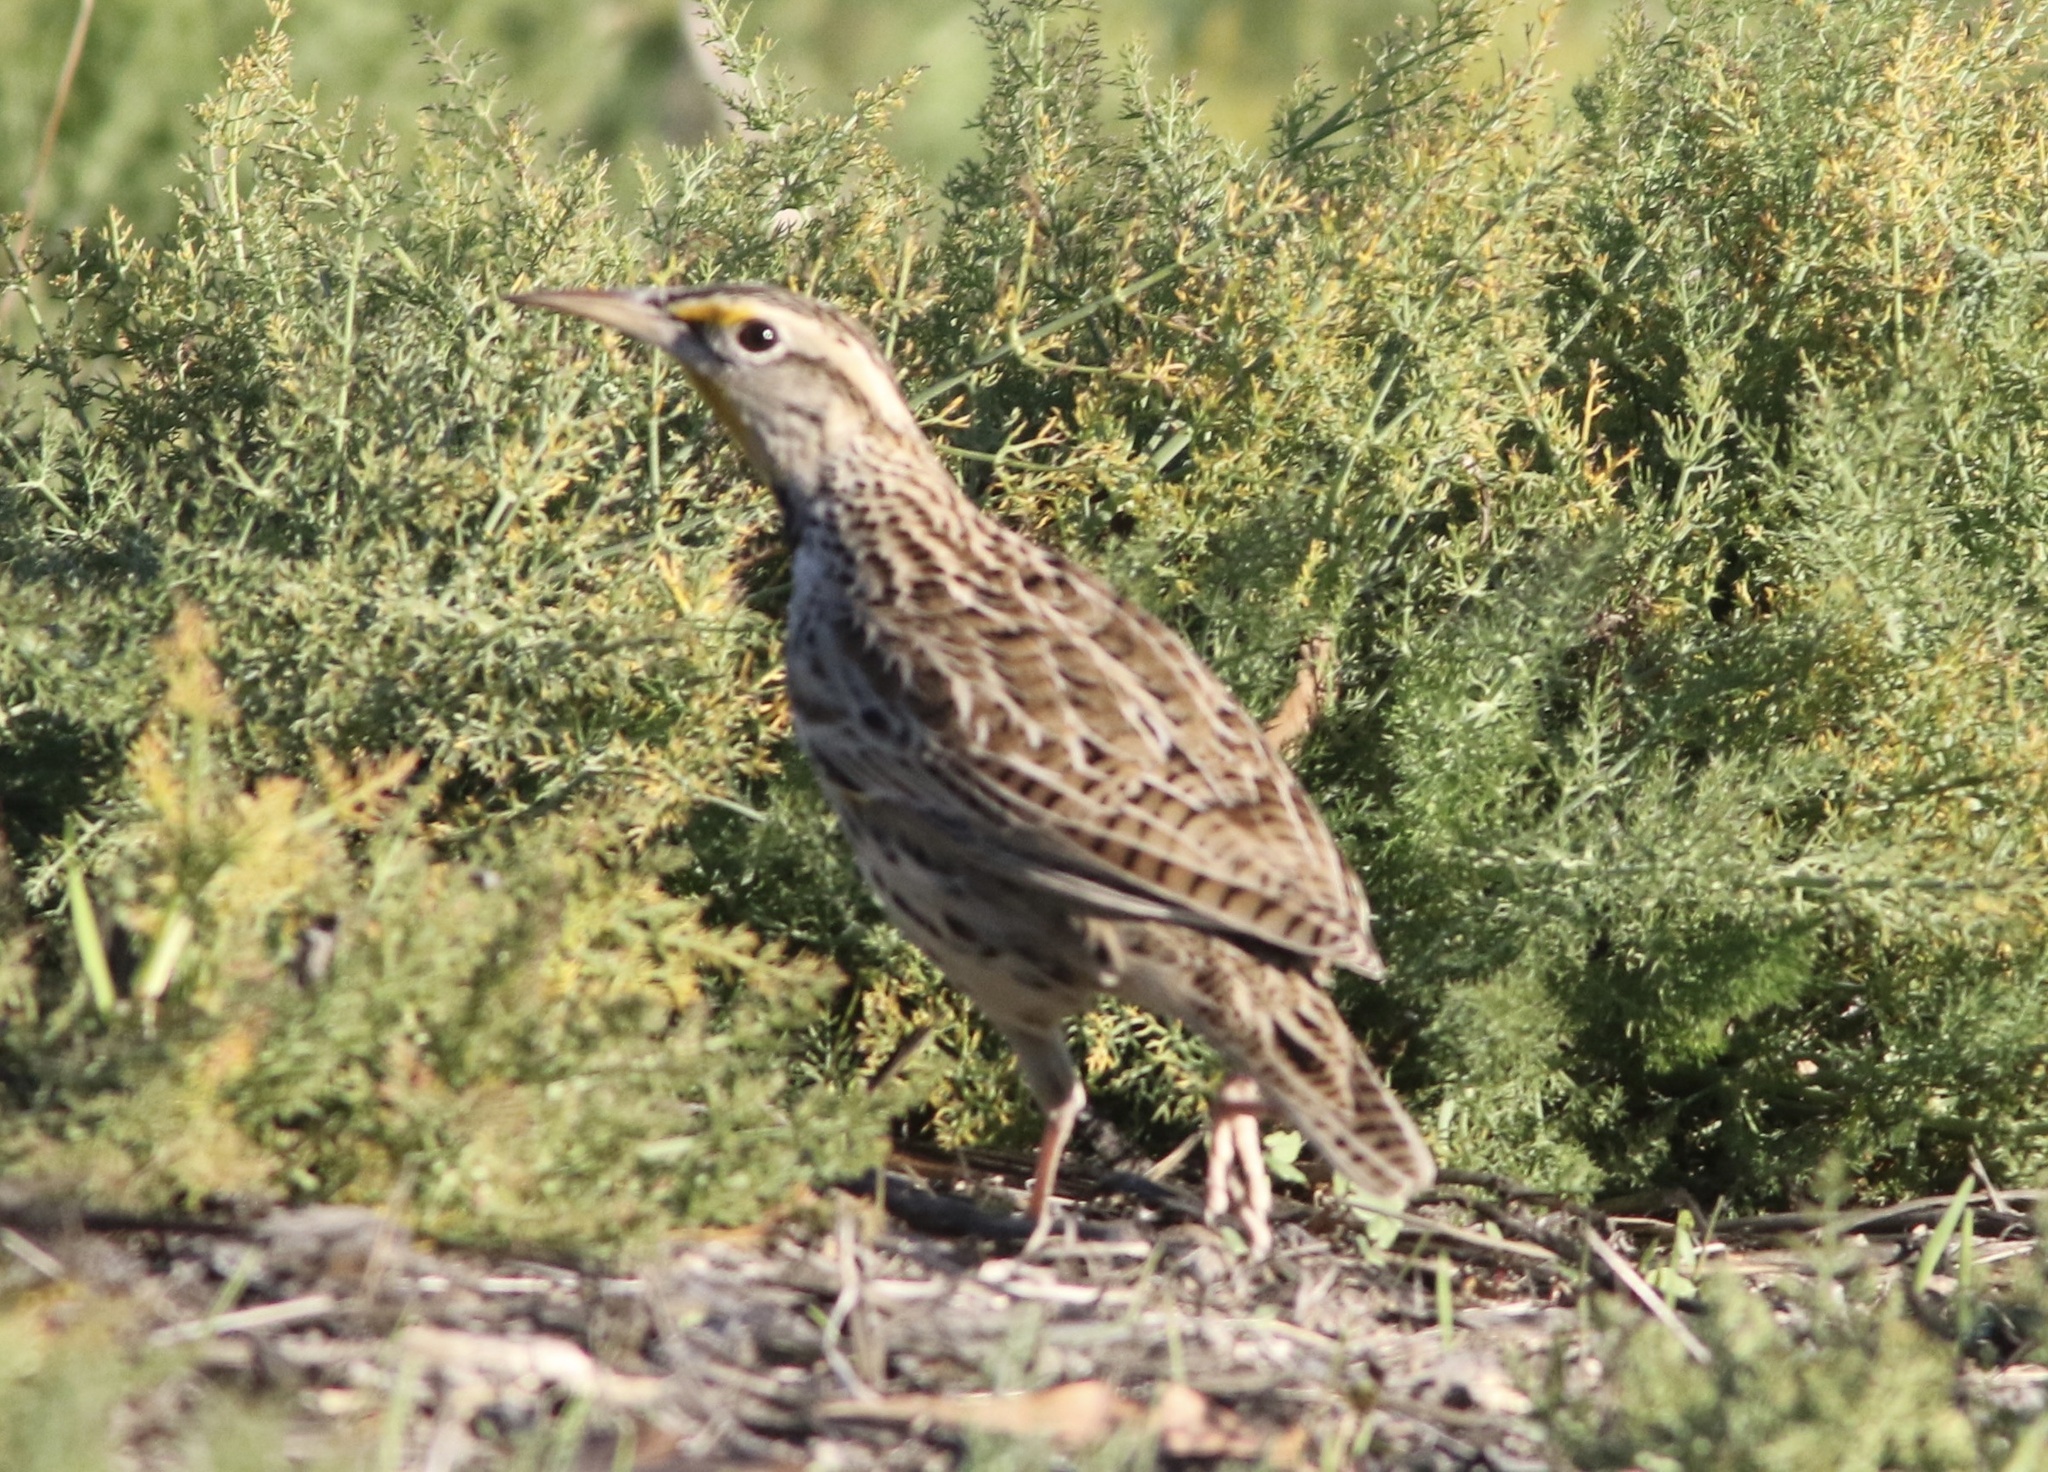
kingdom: Animalia
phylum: Chordata
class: Aves
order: Passeriformes
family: Icteridae
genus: Sturnella
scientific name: Sturnella neglecta
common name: Western meadowlark
